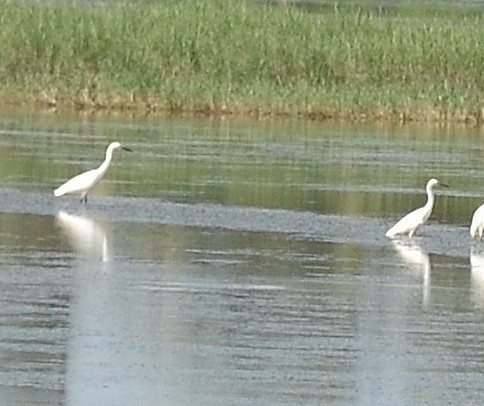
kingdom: Animalia
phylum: Chordata
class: Aves
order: Pelecaniformes
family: Ardeidae
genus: Egretta
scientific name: Egretta garzetta
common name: Little egret
